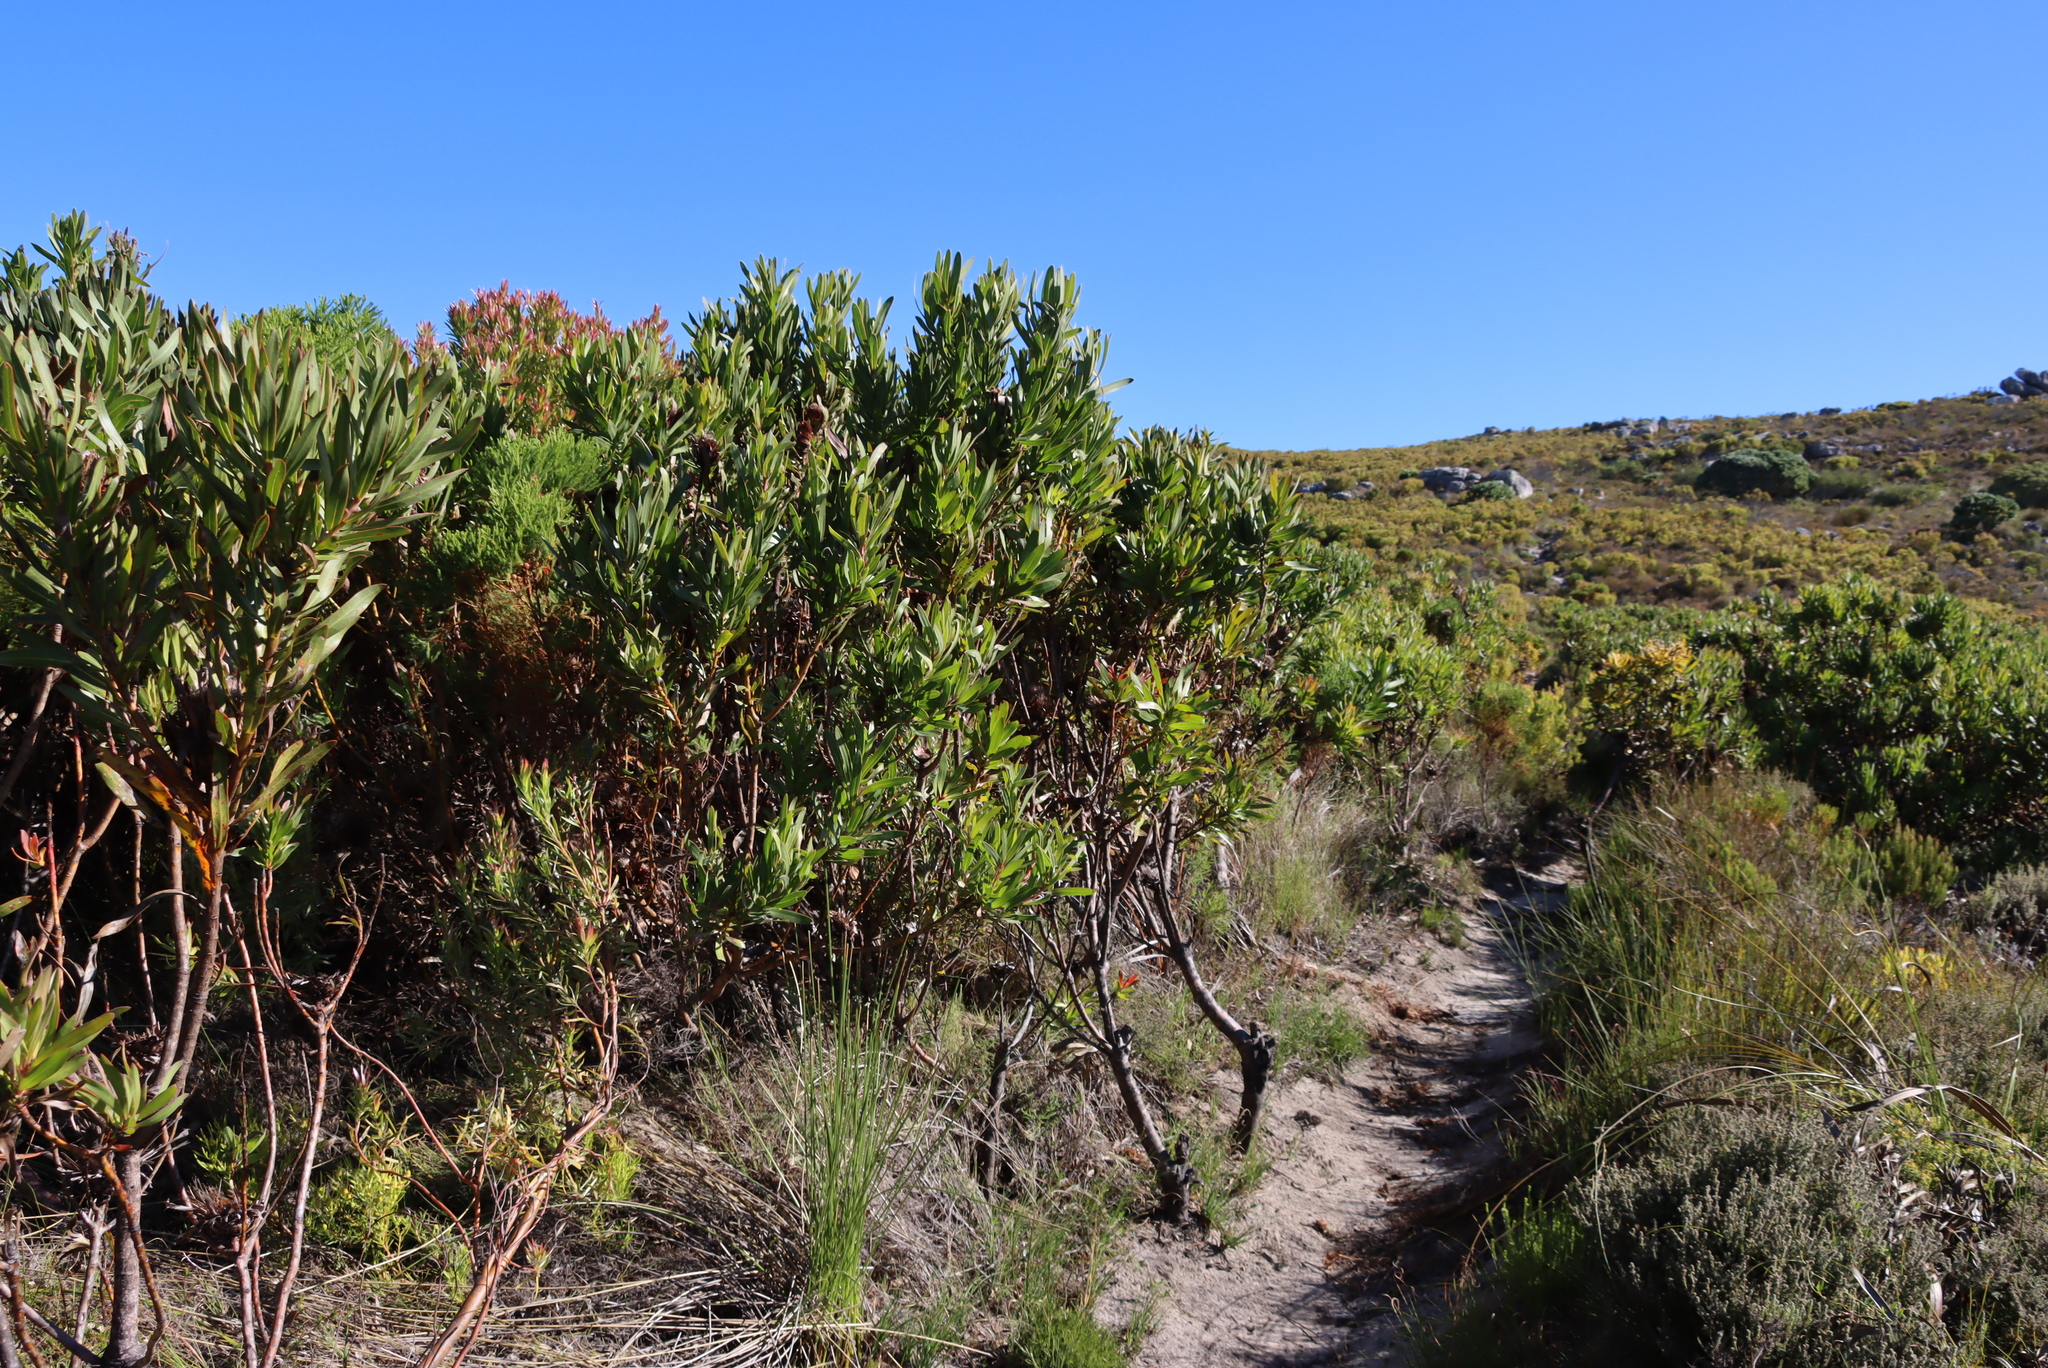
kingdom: Plantae
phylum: Tracheophyta
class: Magnoliopsida
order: Proteales
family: Proteaceae
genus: Protea
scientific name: Protea lepidocarpodendron
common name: Black-bearded protea
